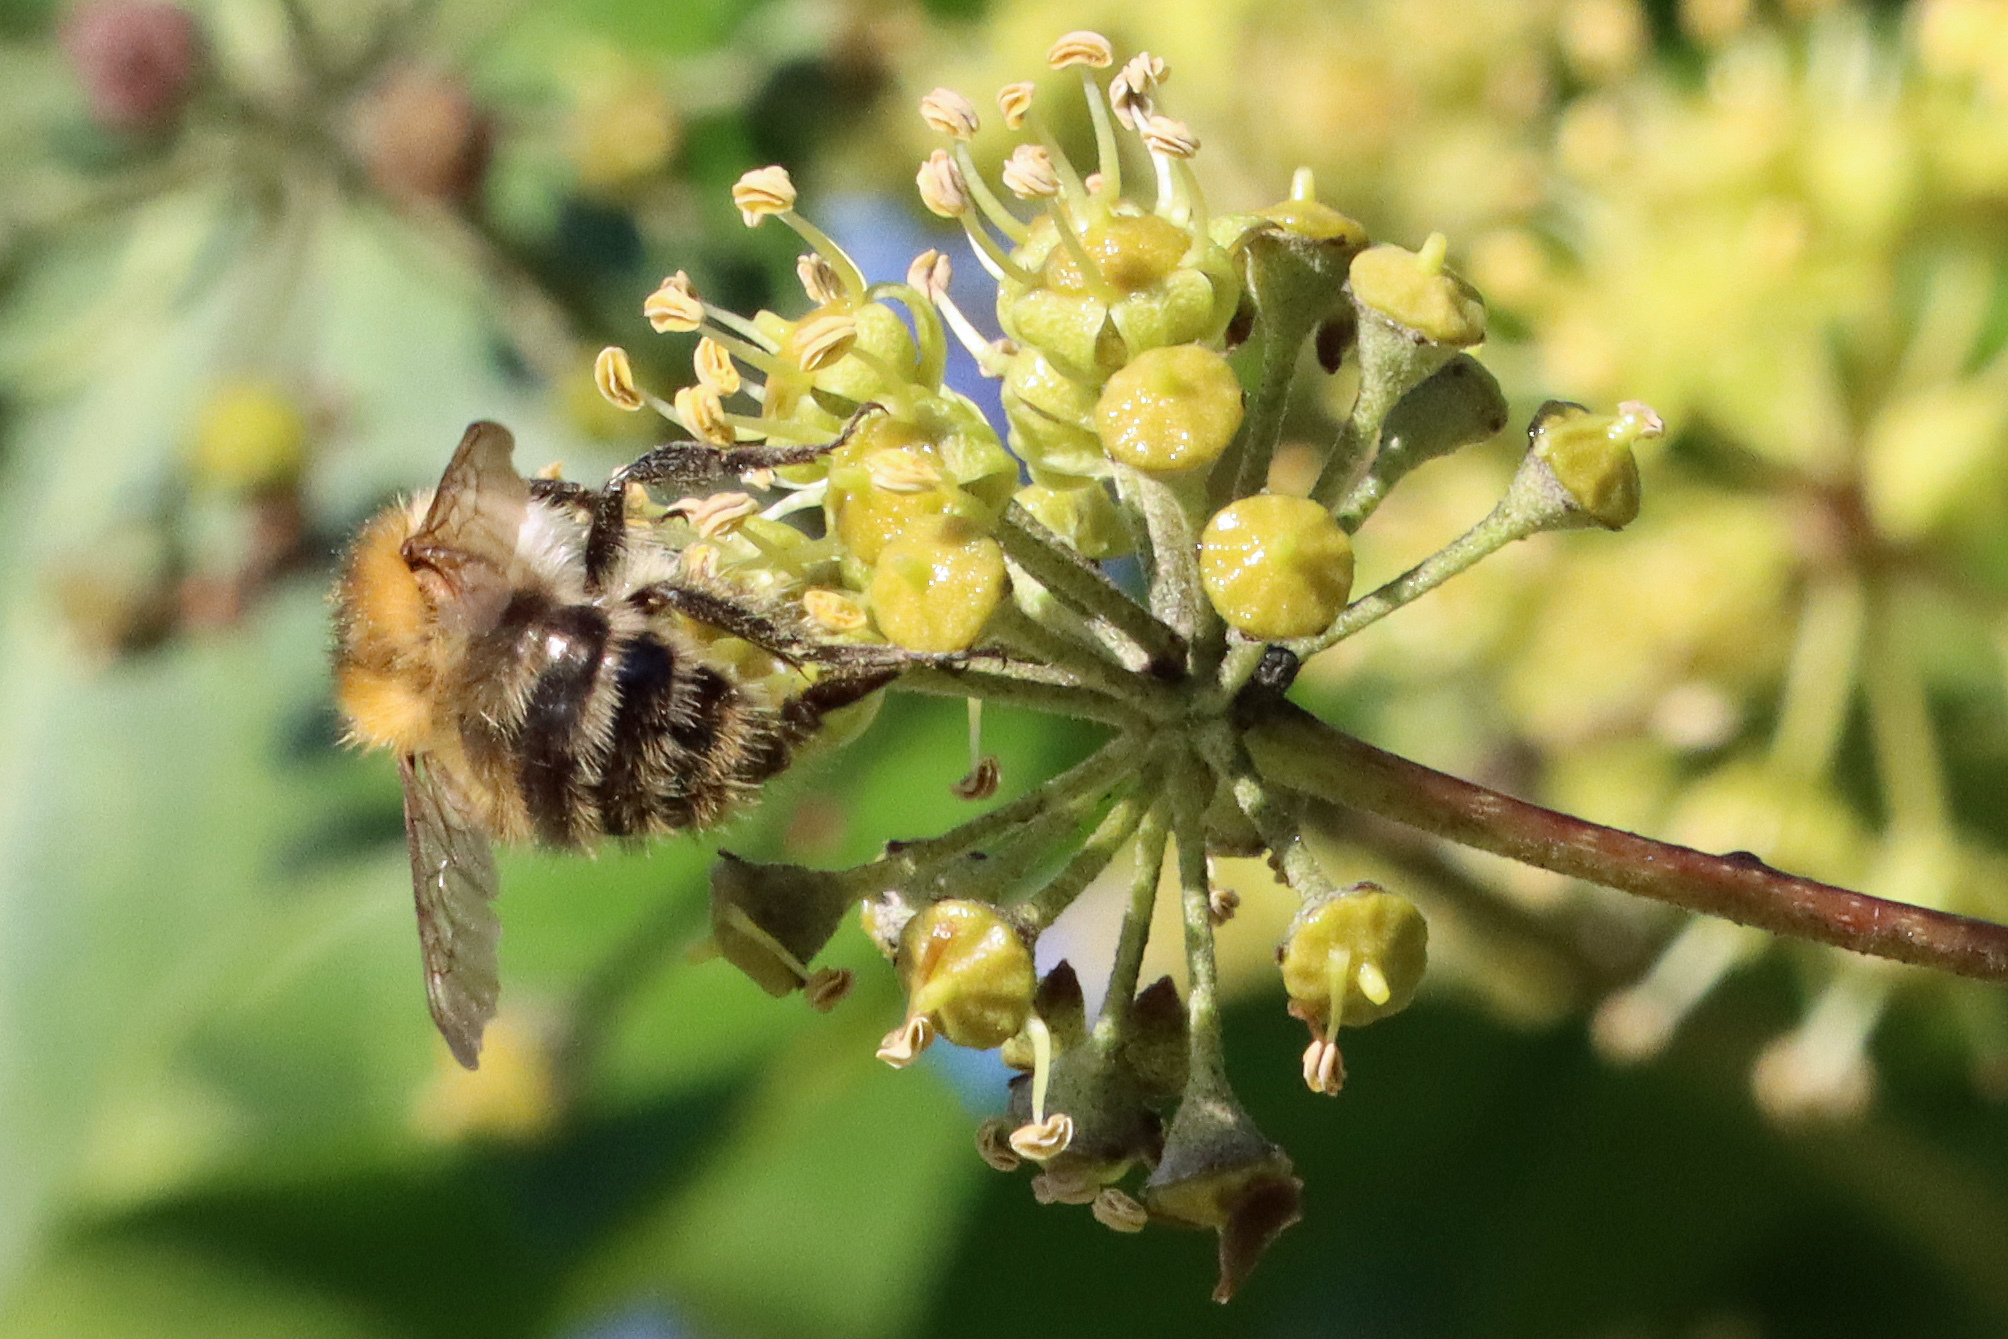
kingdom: Animalia
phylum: Arthropoda
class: Insecta
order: Hymenoptera
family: Apidae
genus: Bombus
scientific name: Bombus pascuorum
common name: Common carder bee
